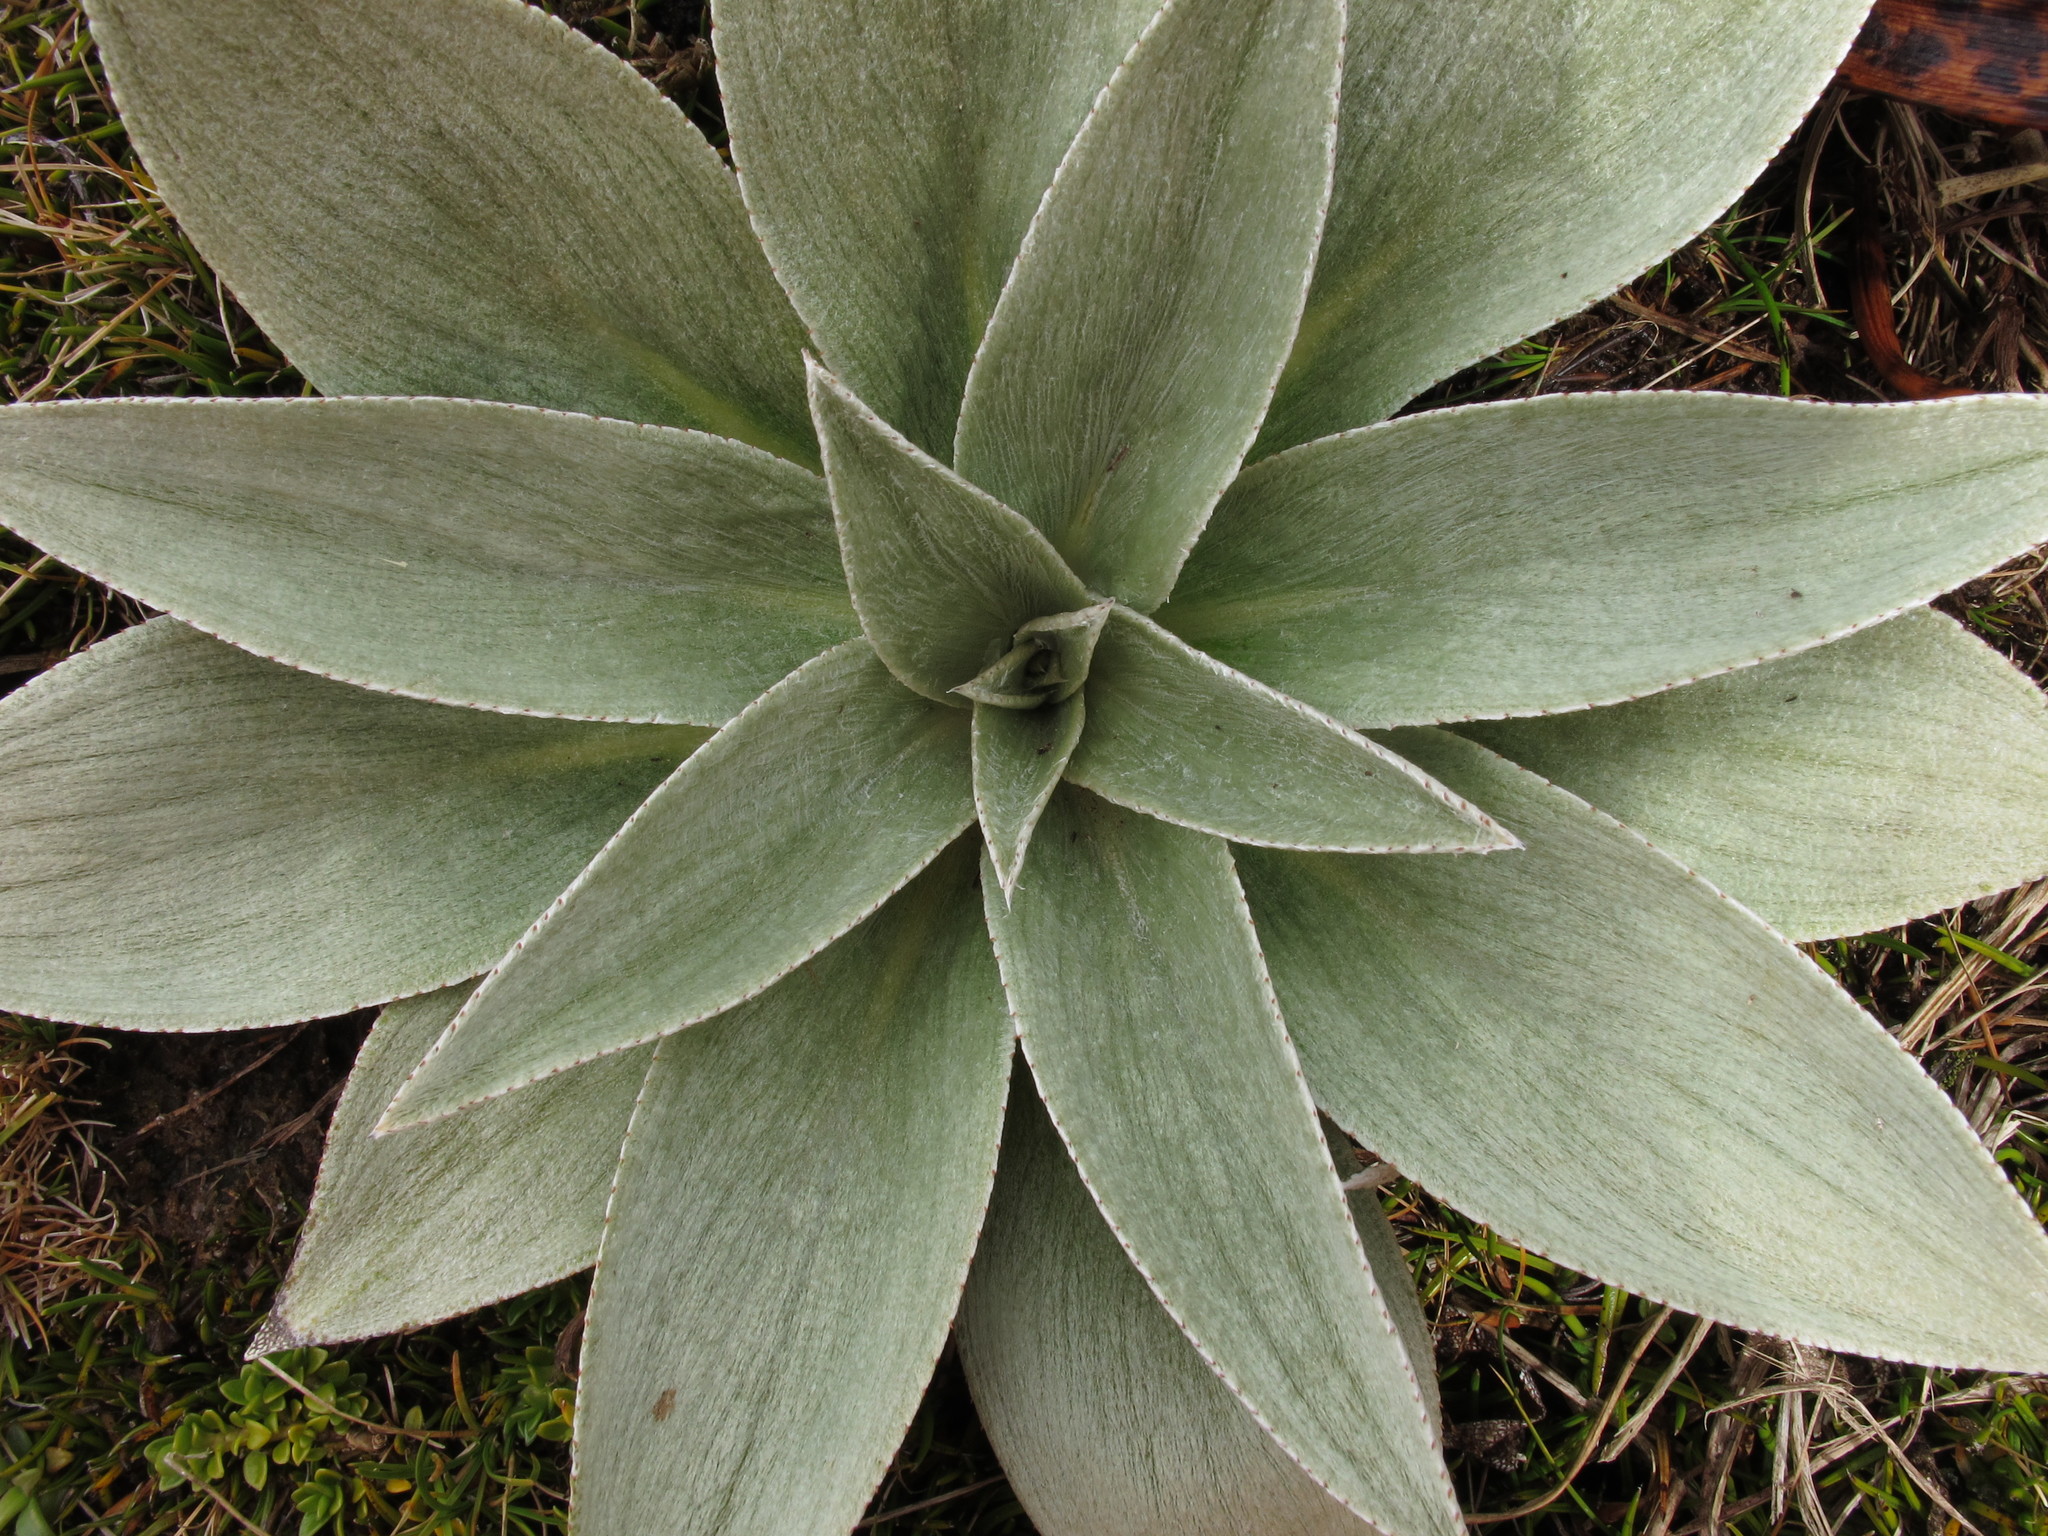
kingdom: Plantae
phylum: Tracheophyta
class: Magnoliopsida
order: Asterales
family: Asteraceae
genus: Pleurophyllum
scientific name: Pleurophyllum hookeri
